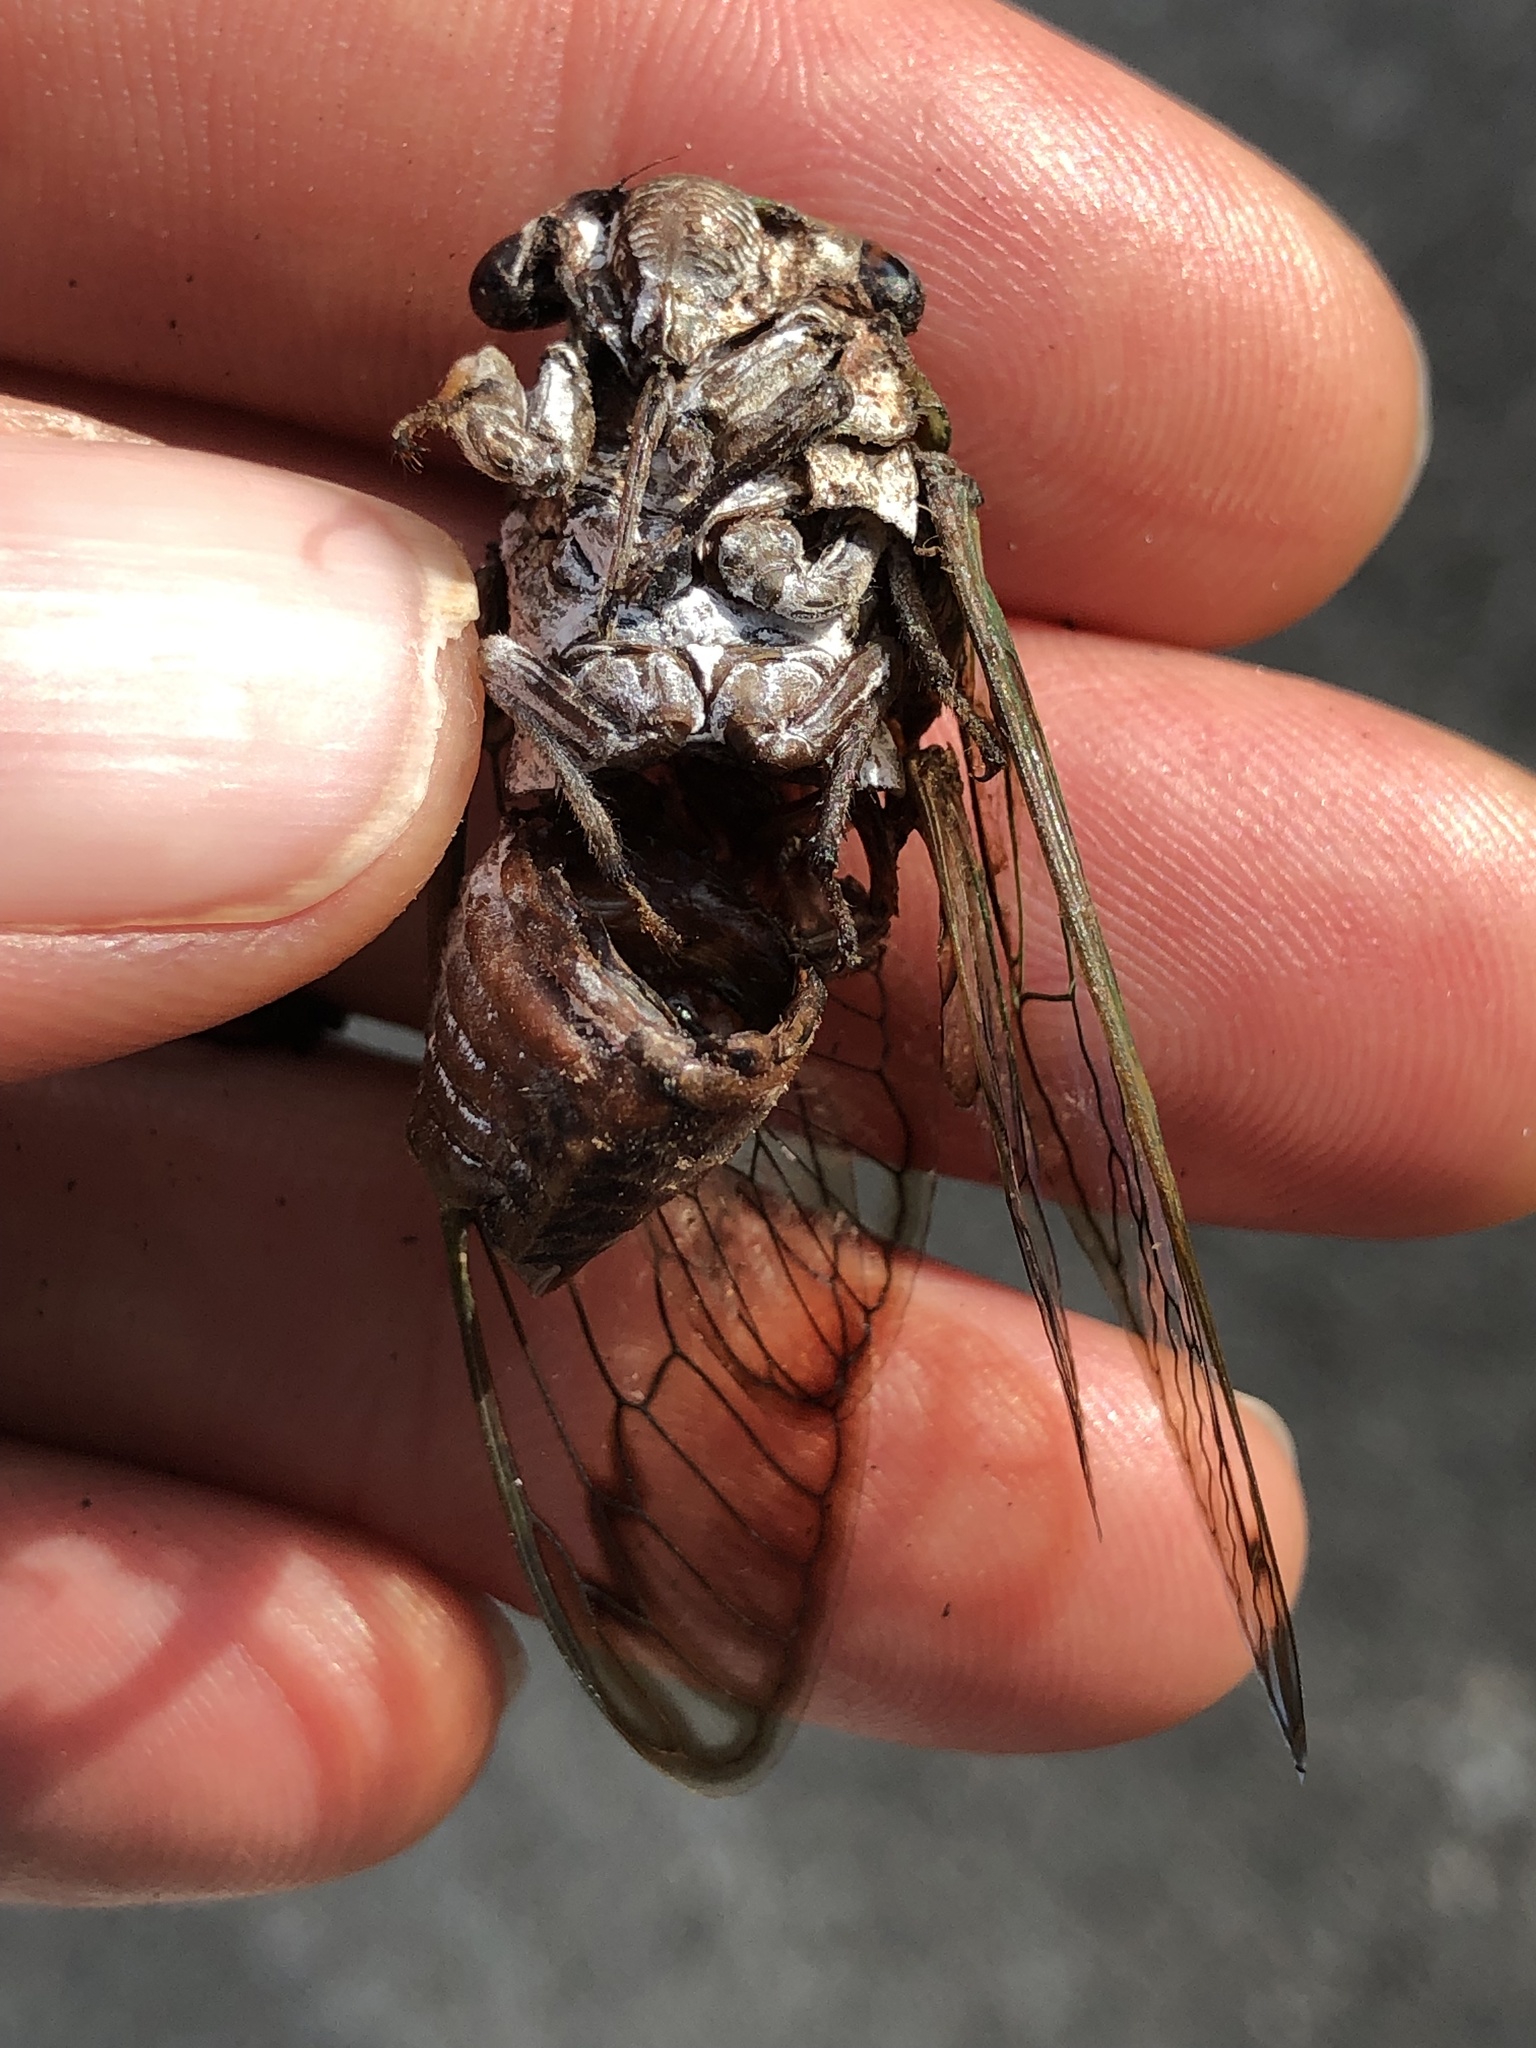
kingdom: Animalia
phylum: Arthropoda
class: Insecta
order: Hemiptera
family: Cicadidae
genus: Neotibicen
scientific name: Neotibicen superbus
